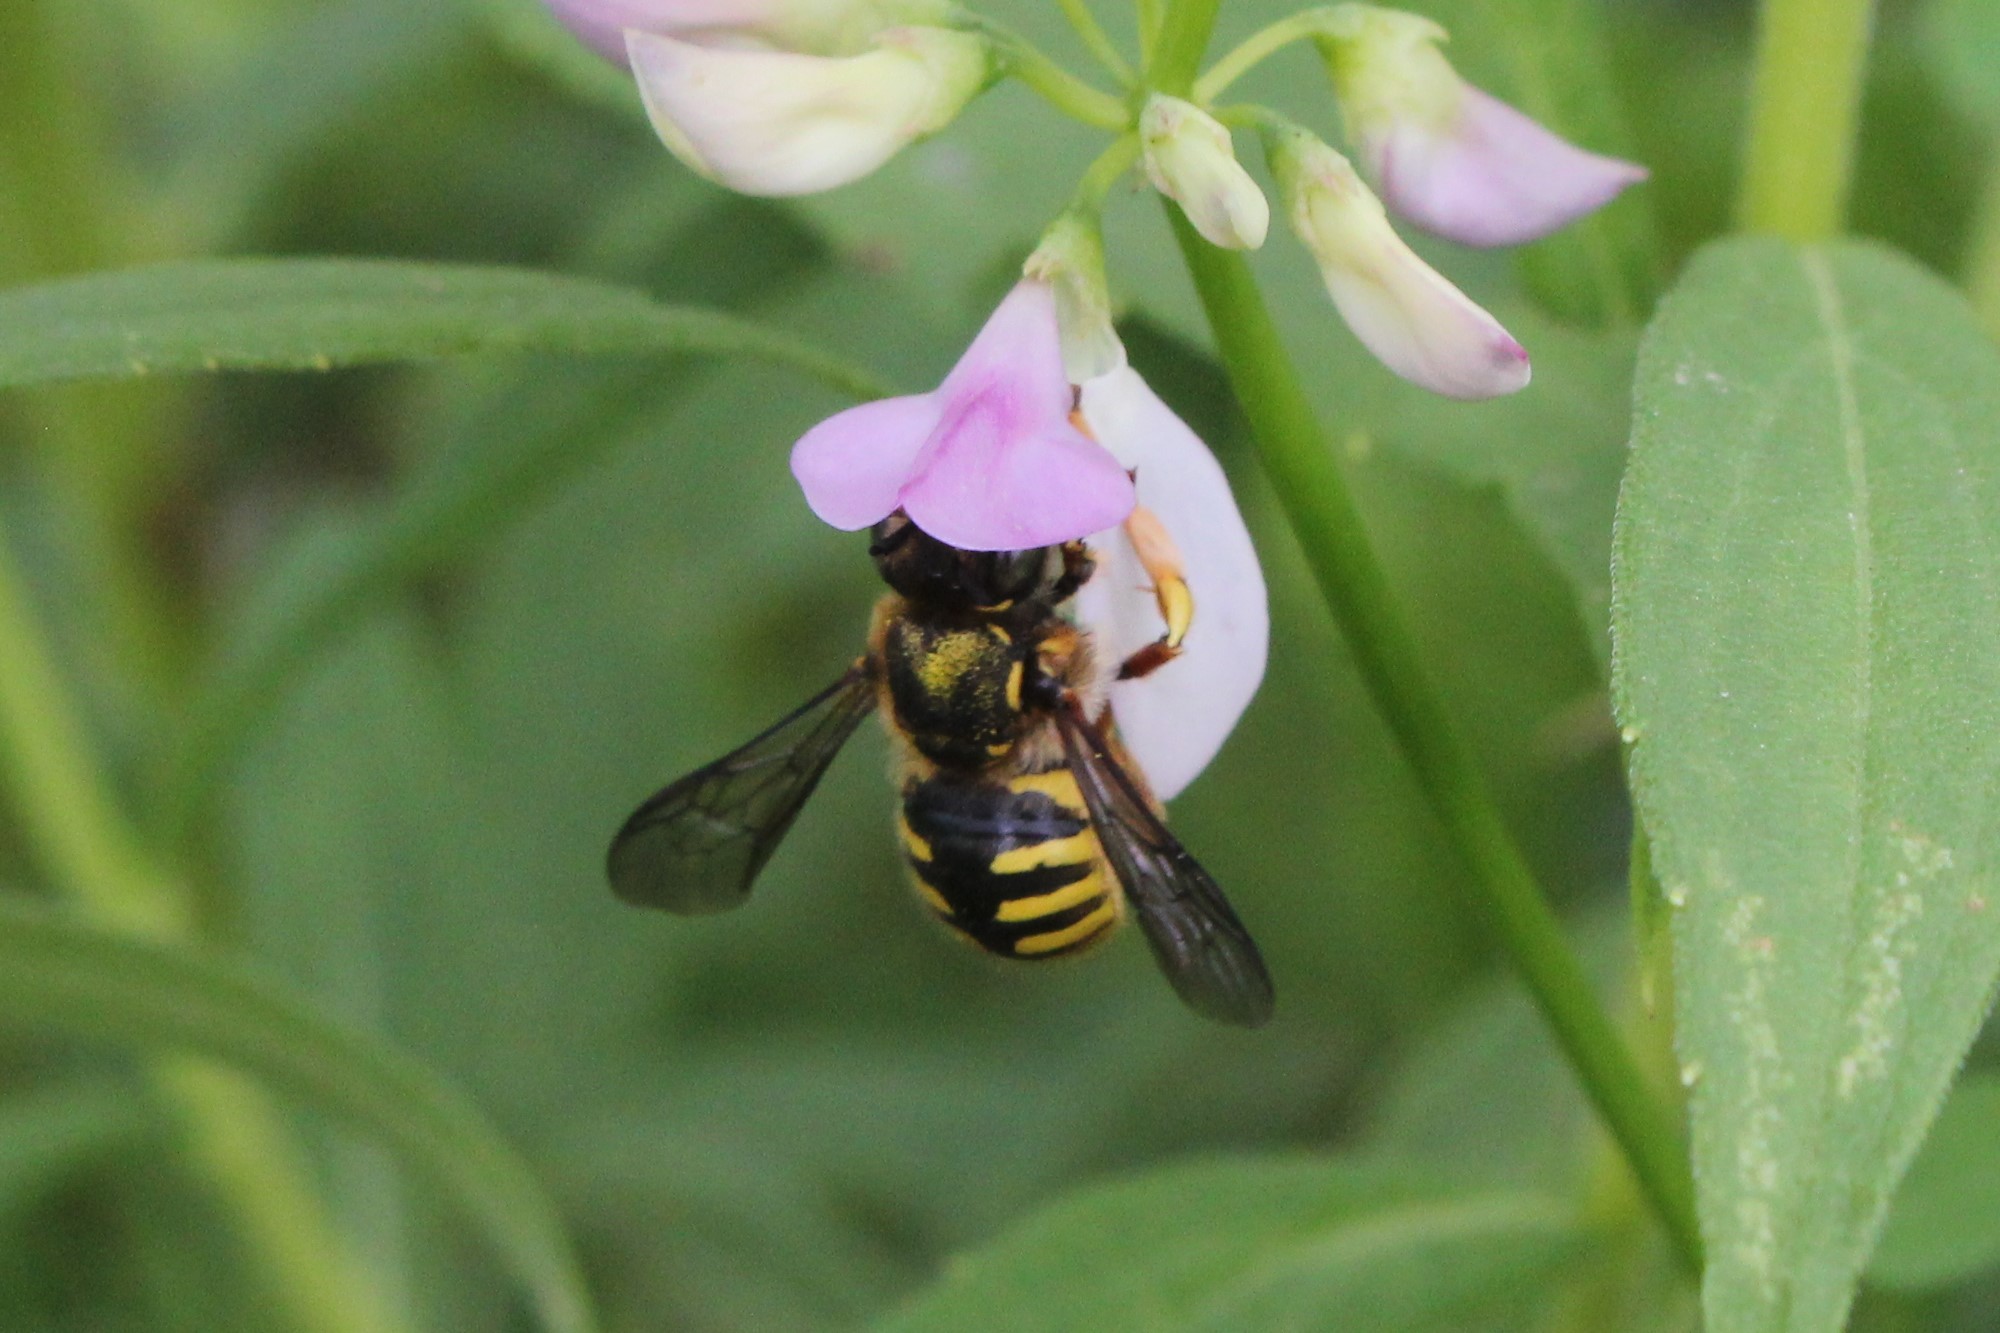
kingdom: Animalia
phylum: Arthropoda
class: Insecta
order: Hymenoptera
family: Megachilidae
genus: Anthidium
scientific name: Anthidium manicatum
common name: Wool carder bee
